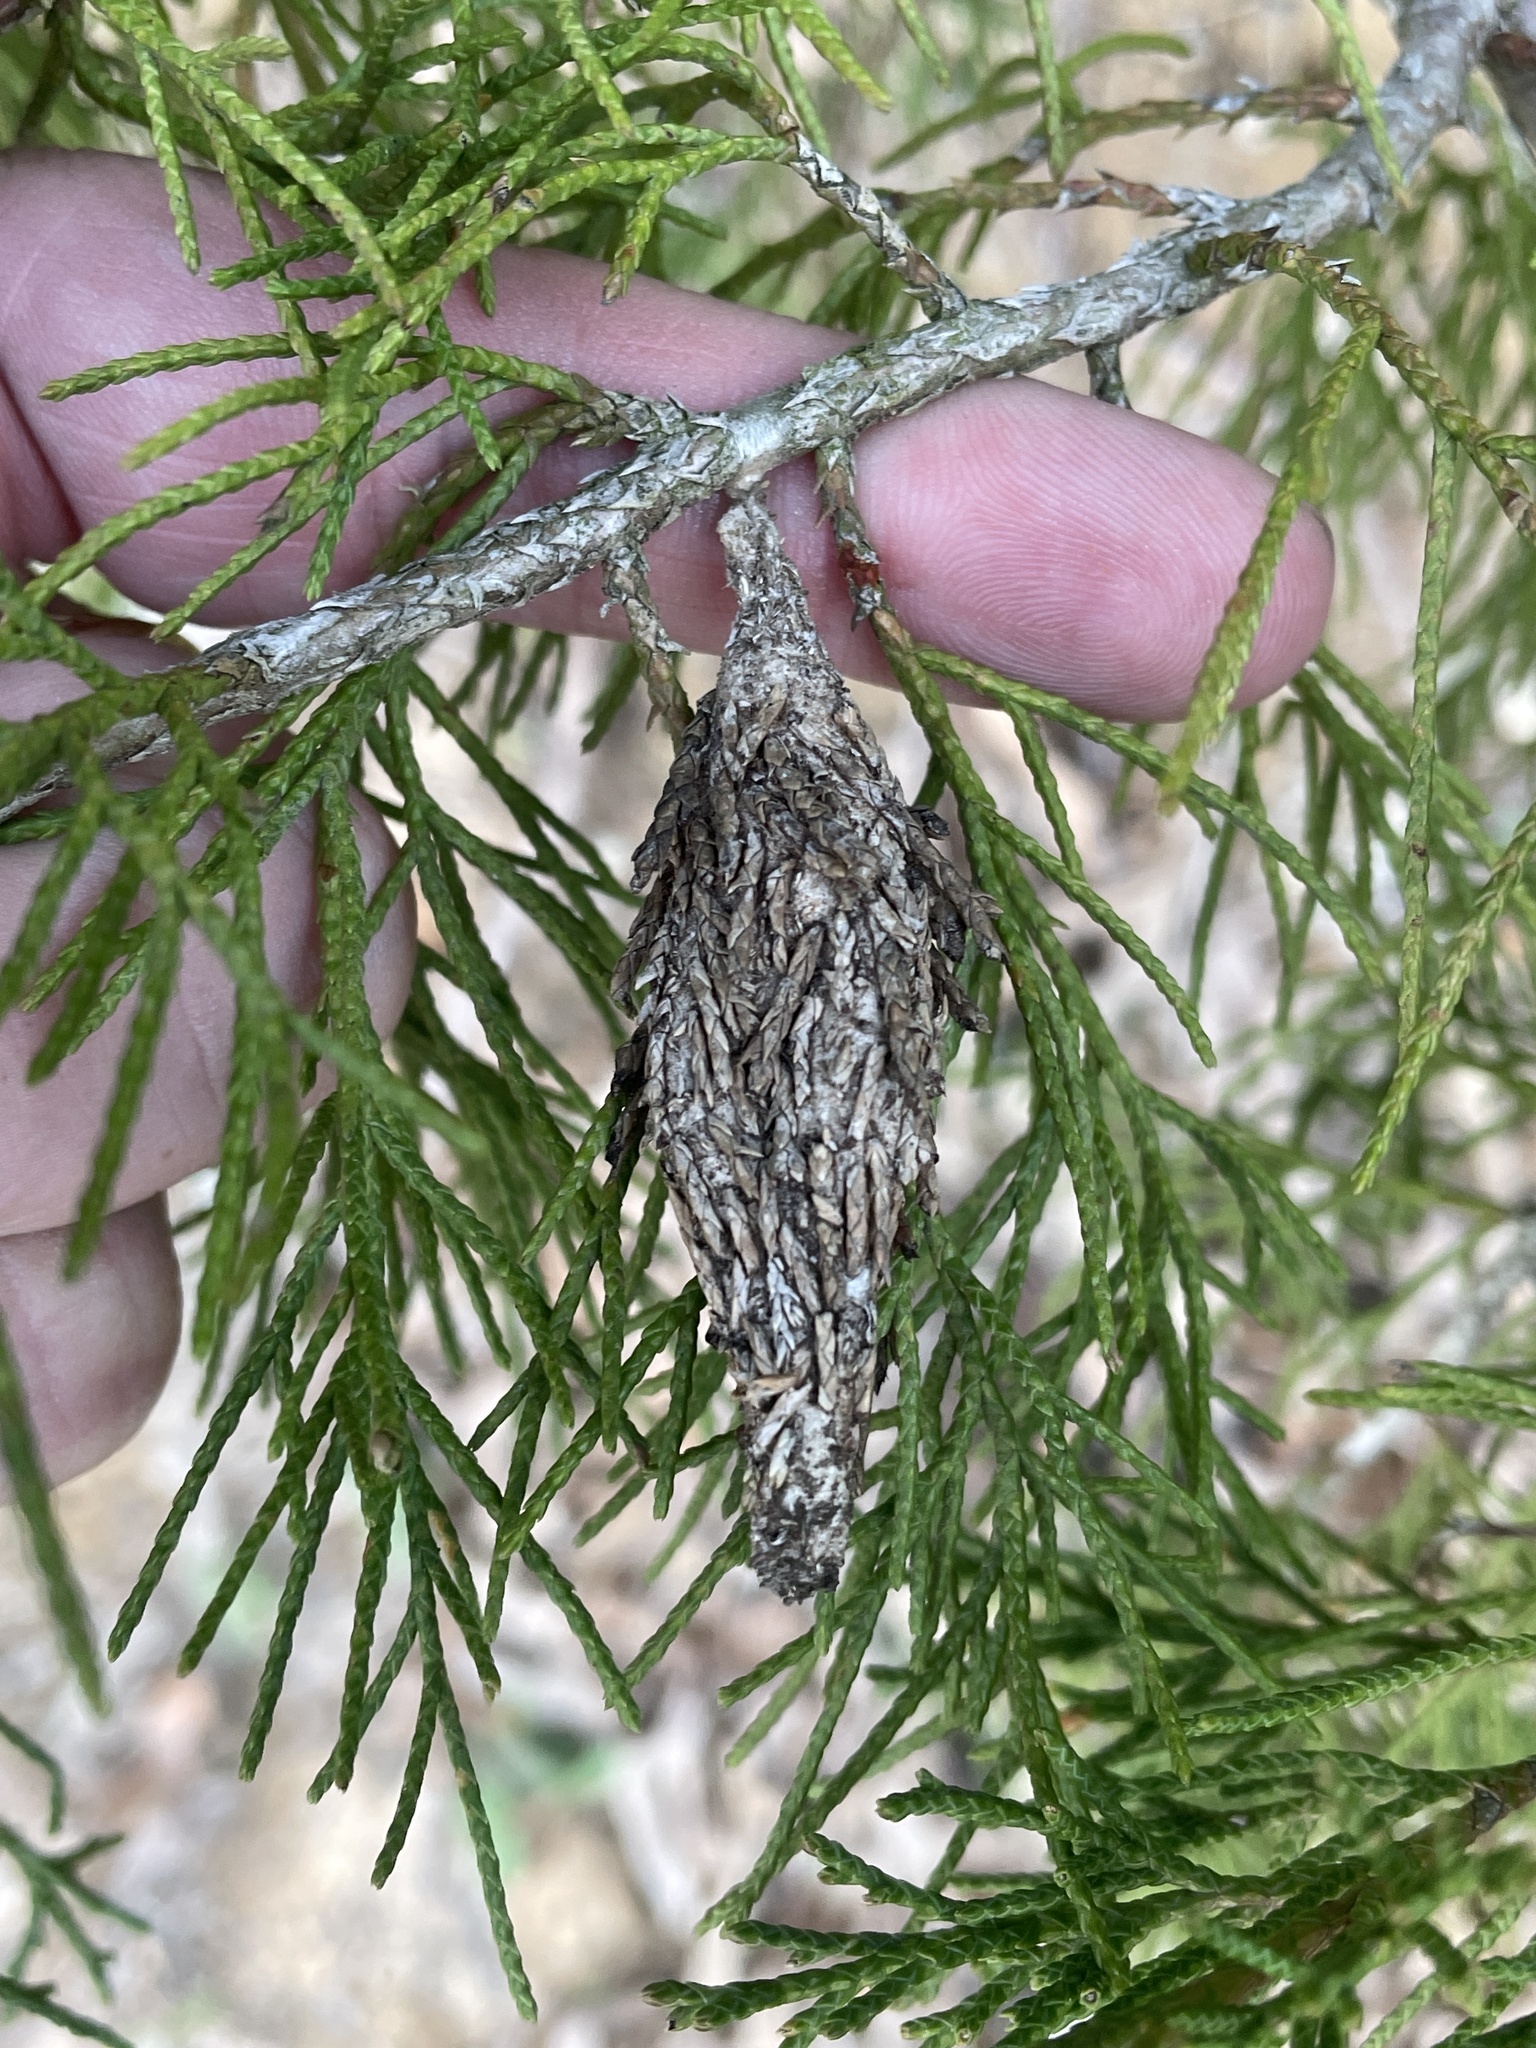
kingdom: Animalia
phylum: Arthropoda
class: Insecta
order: Lepidoptera
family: Psychidae
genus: Thyridopteryx
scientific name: Thyridopteryx ephemeraeformis
